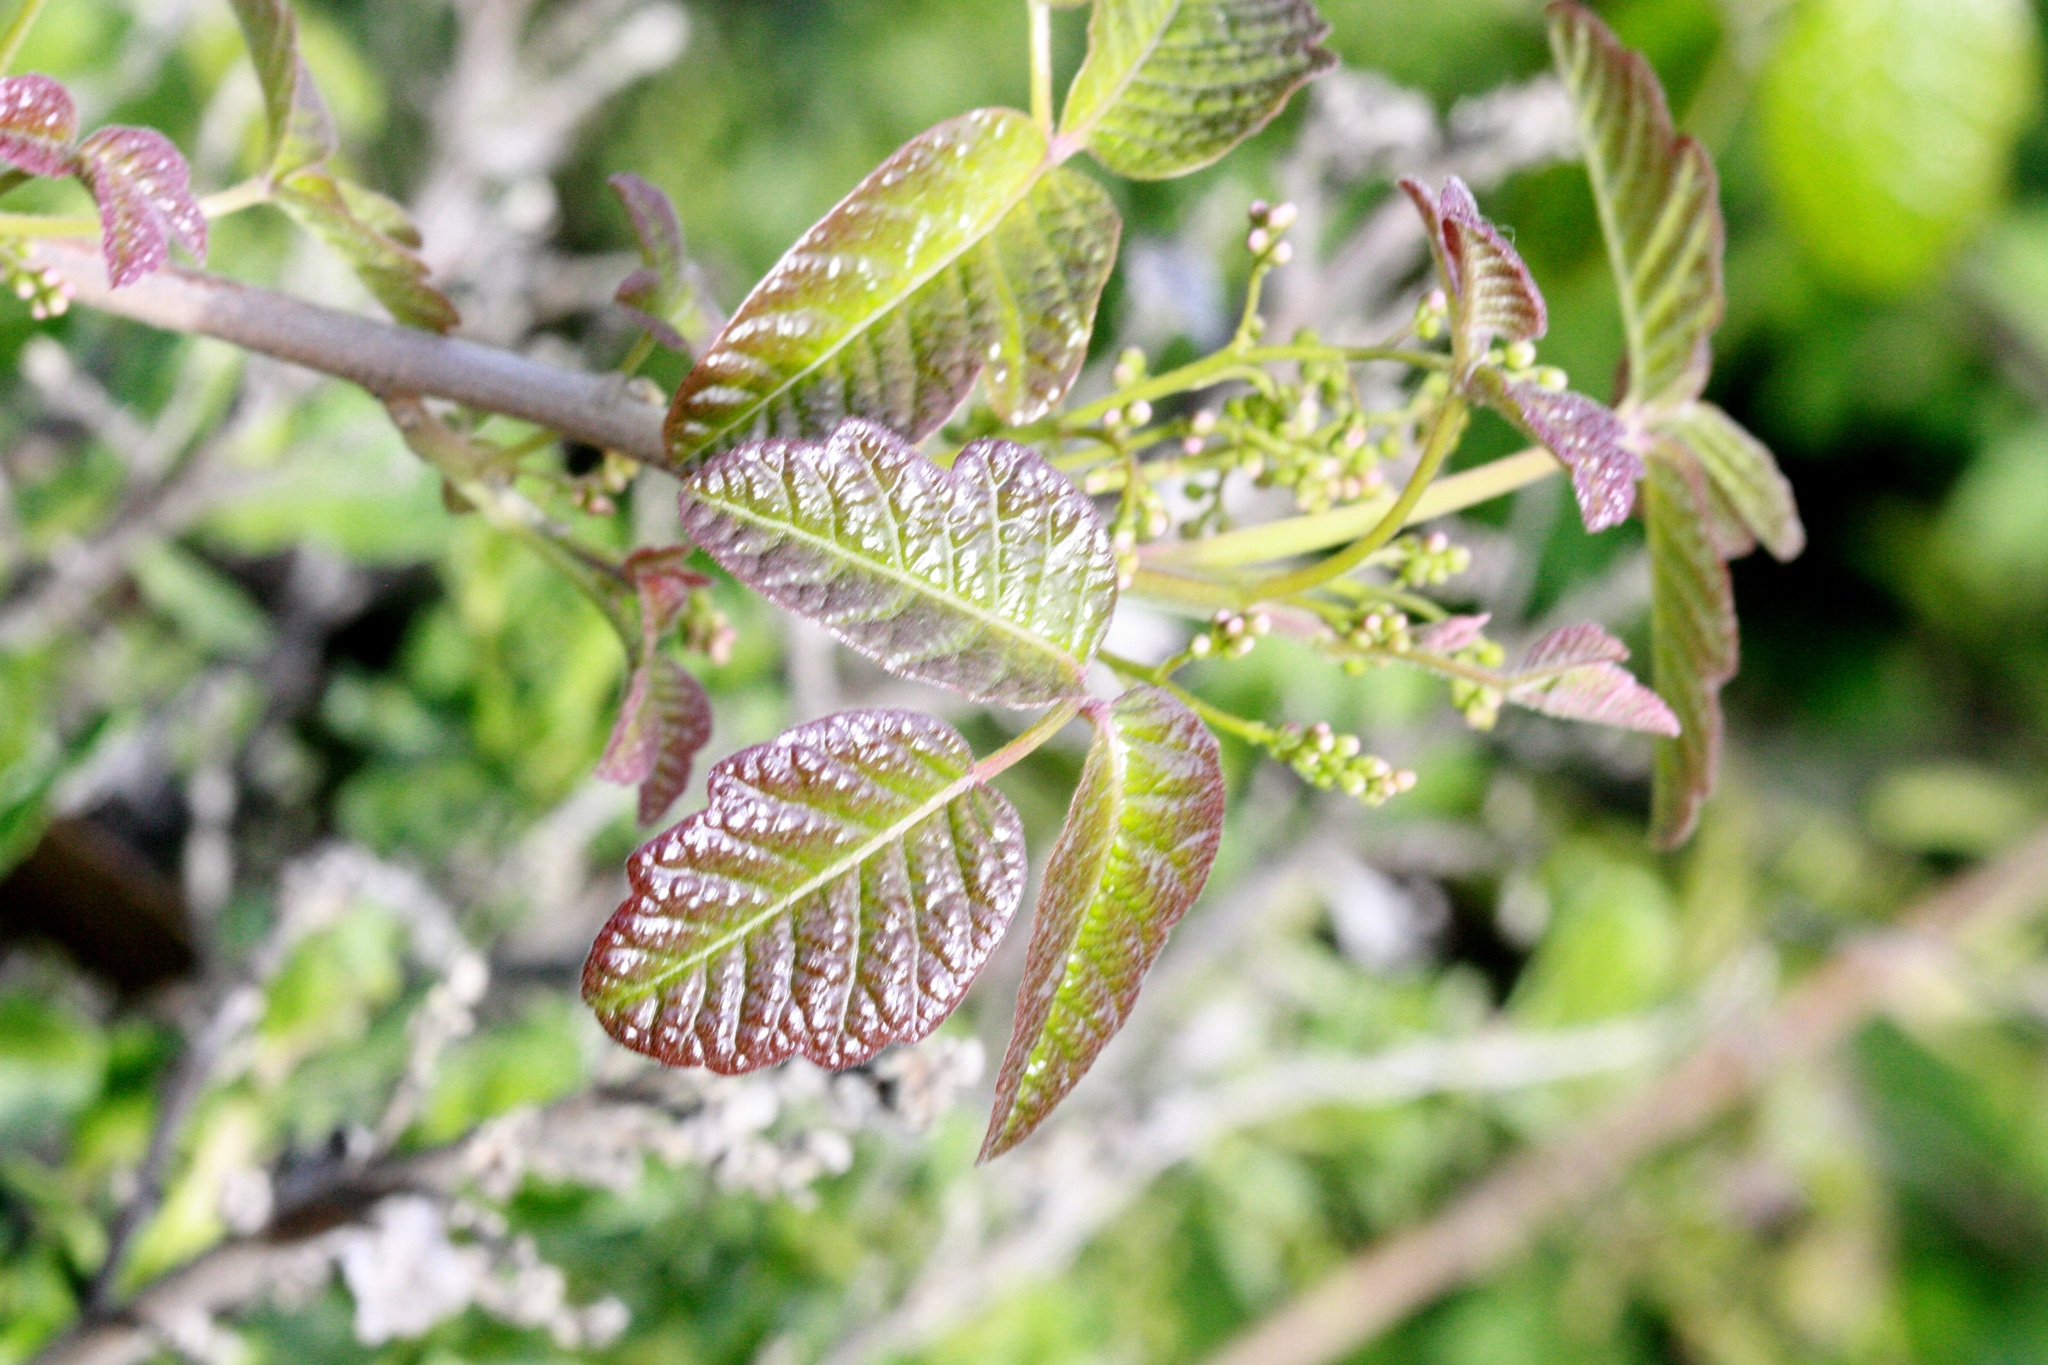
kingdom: Plantae
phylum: Tracheophyta
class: Magnoliopsida
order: Sapindales
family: Anacardiaceae
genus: Toxicodendron
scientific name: Toxicodendron diversilobum
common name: Pacific poison-oak
